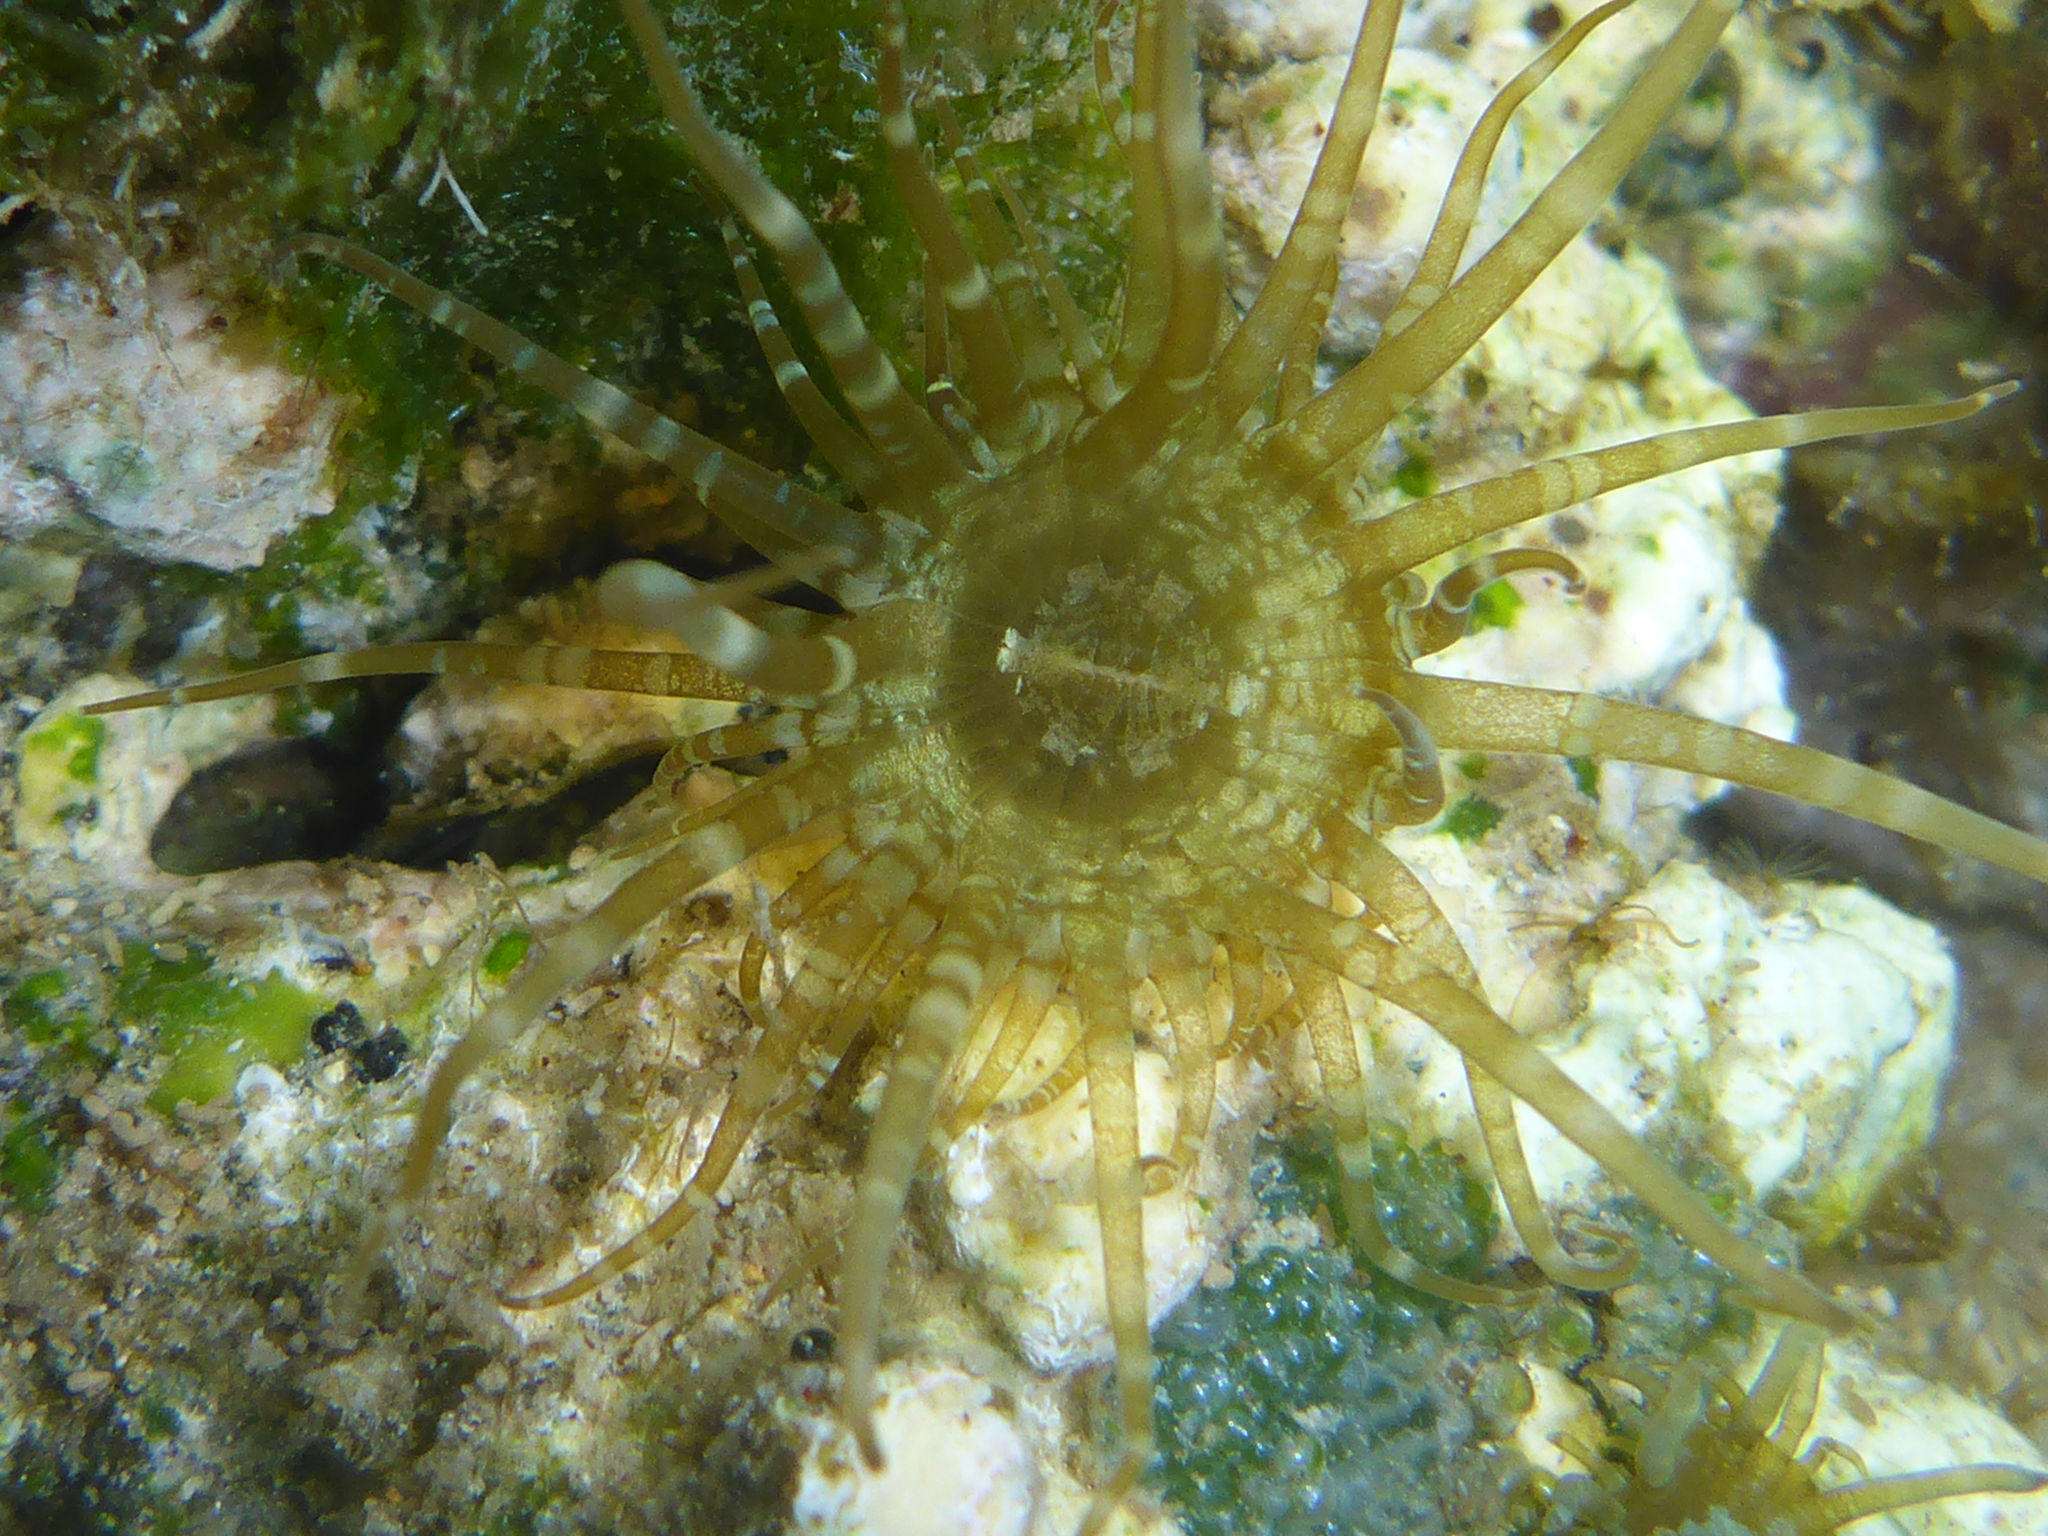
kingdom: Animalia
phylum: Cnidaria
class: Anthozoa
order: Actiniaria
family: Aiptasiidae
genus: Exaiptasia
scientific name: Exaiptasia diaphana
